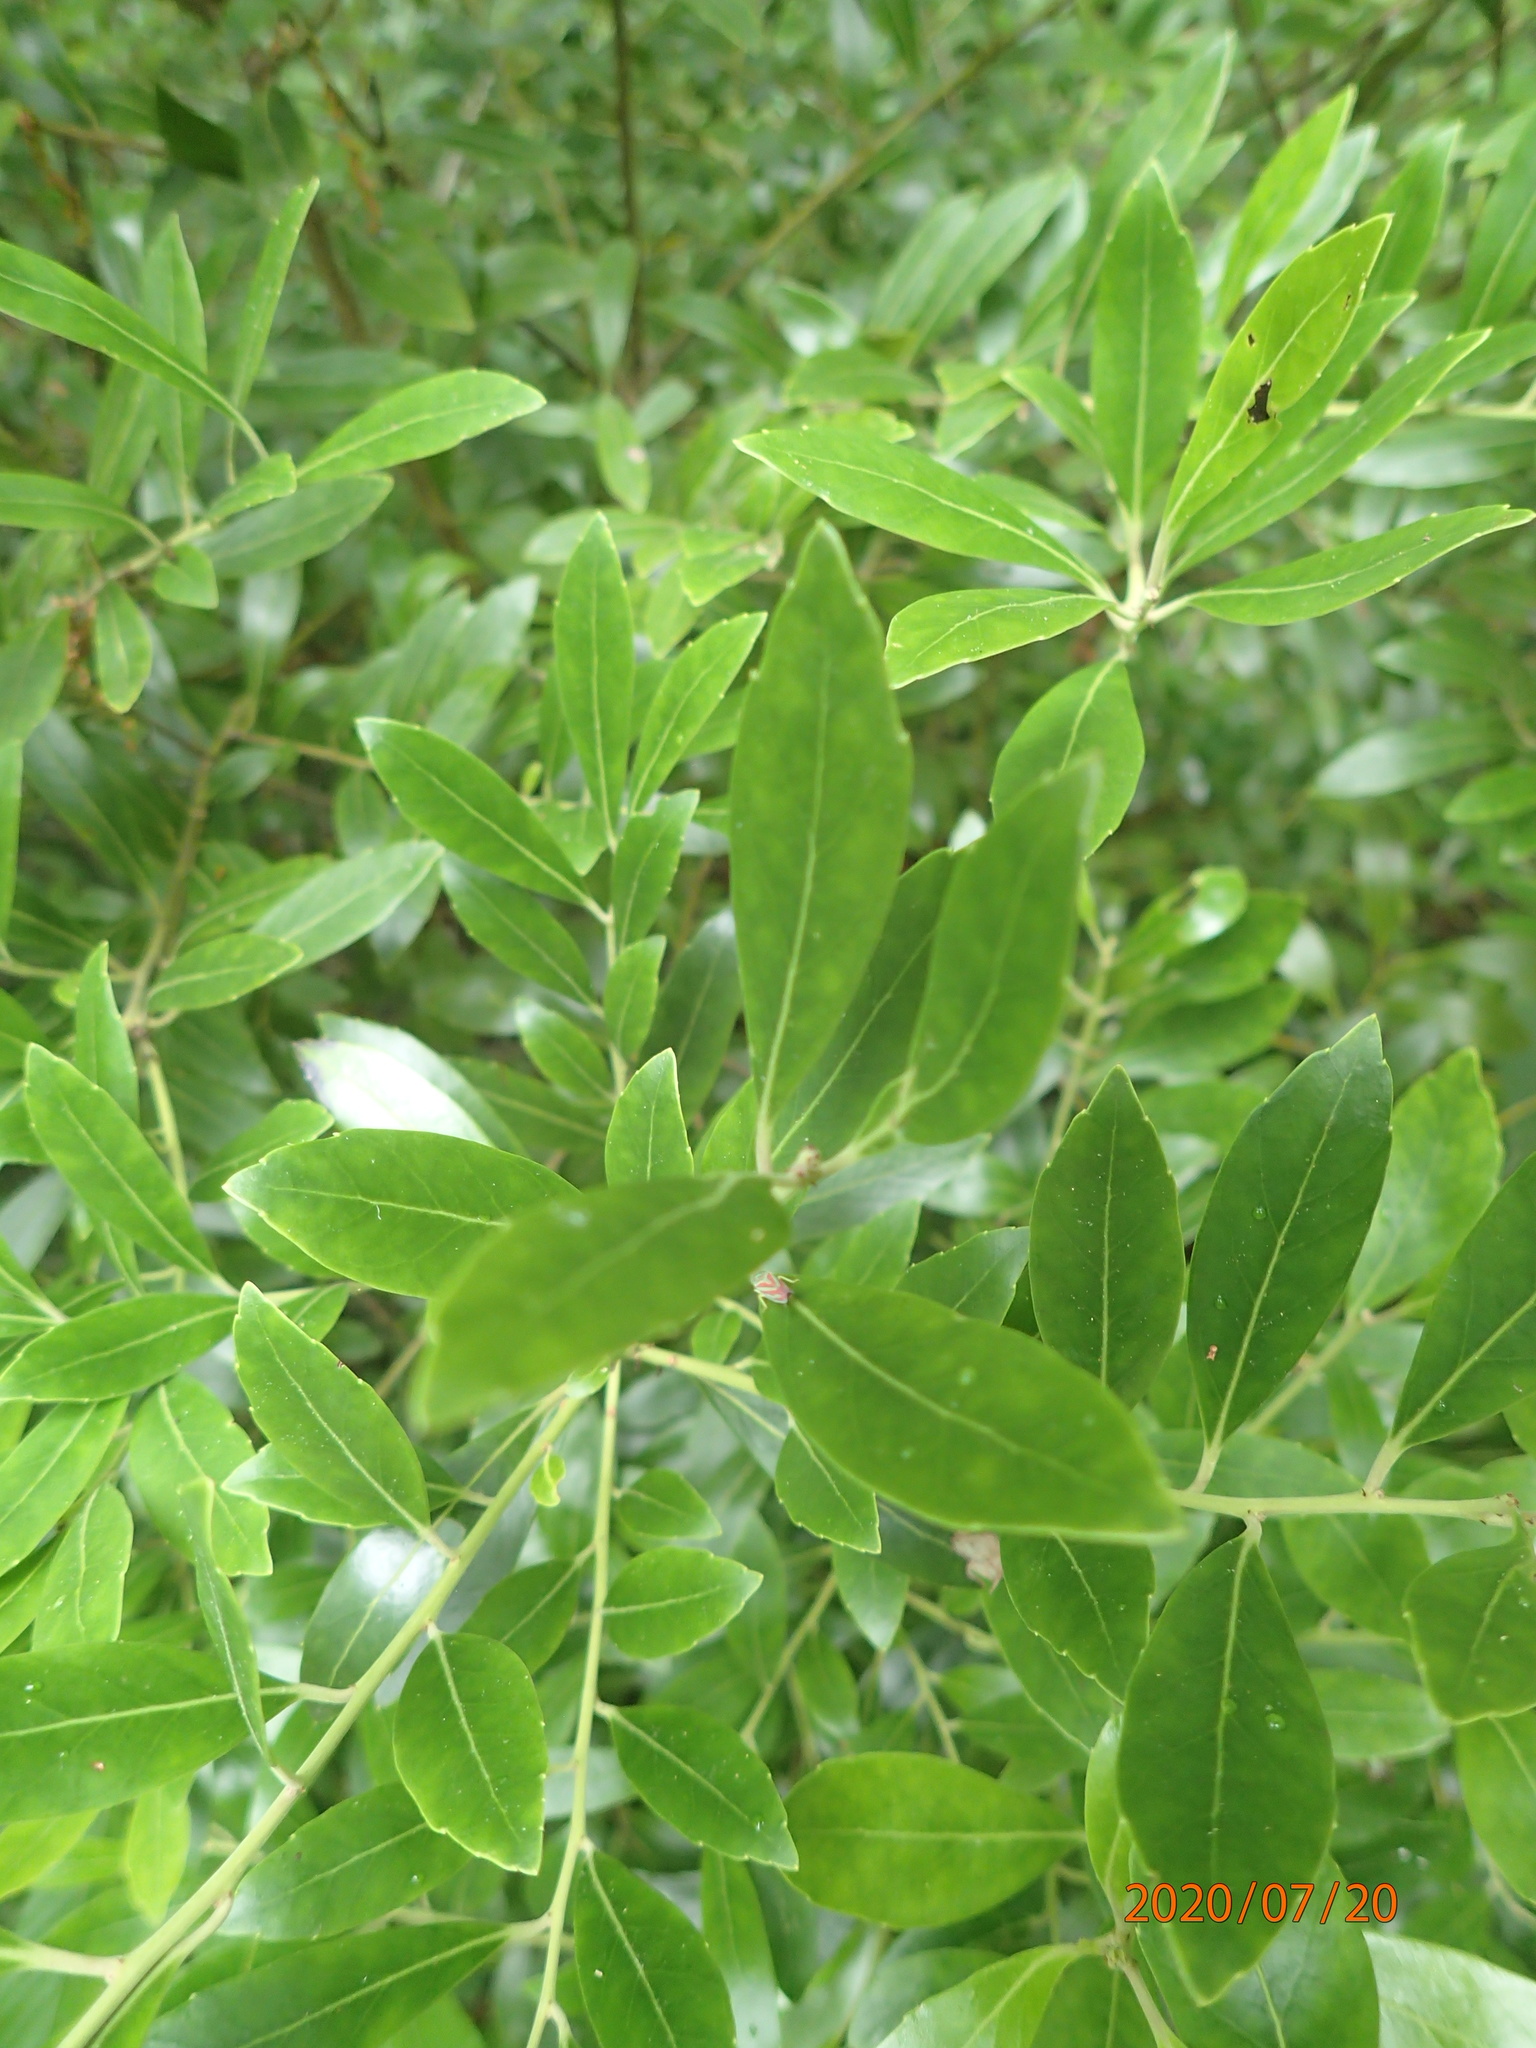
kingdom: Plantae
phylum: Tracheophyta
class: Magnoliopsida
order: Aquifoliales
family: Aquifoliaceae
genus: Ilex
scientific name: Ilex glabra
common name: Bitter gallberry
